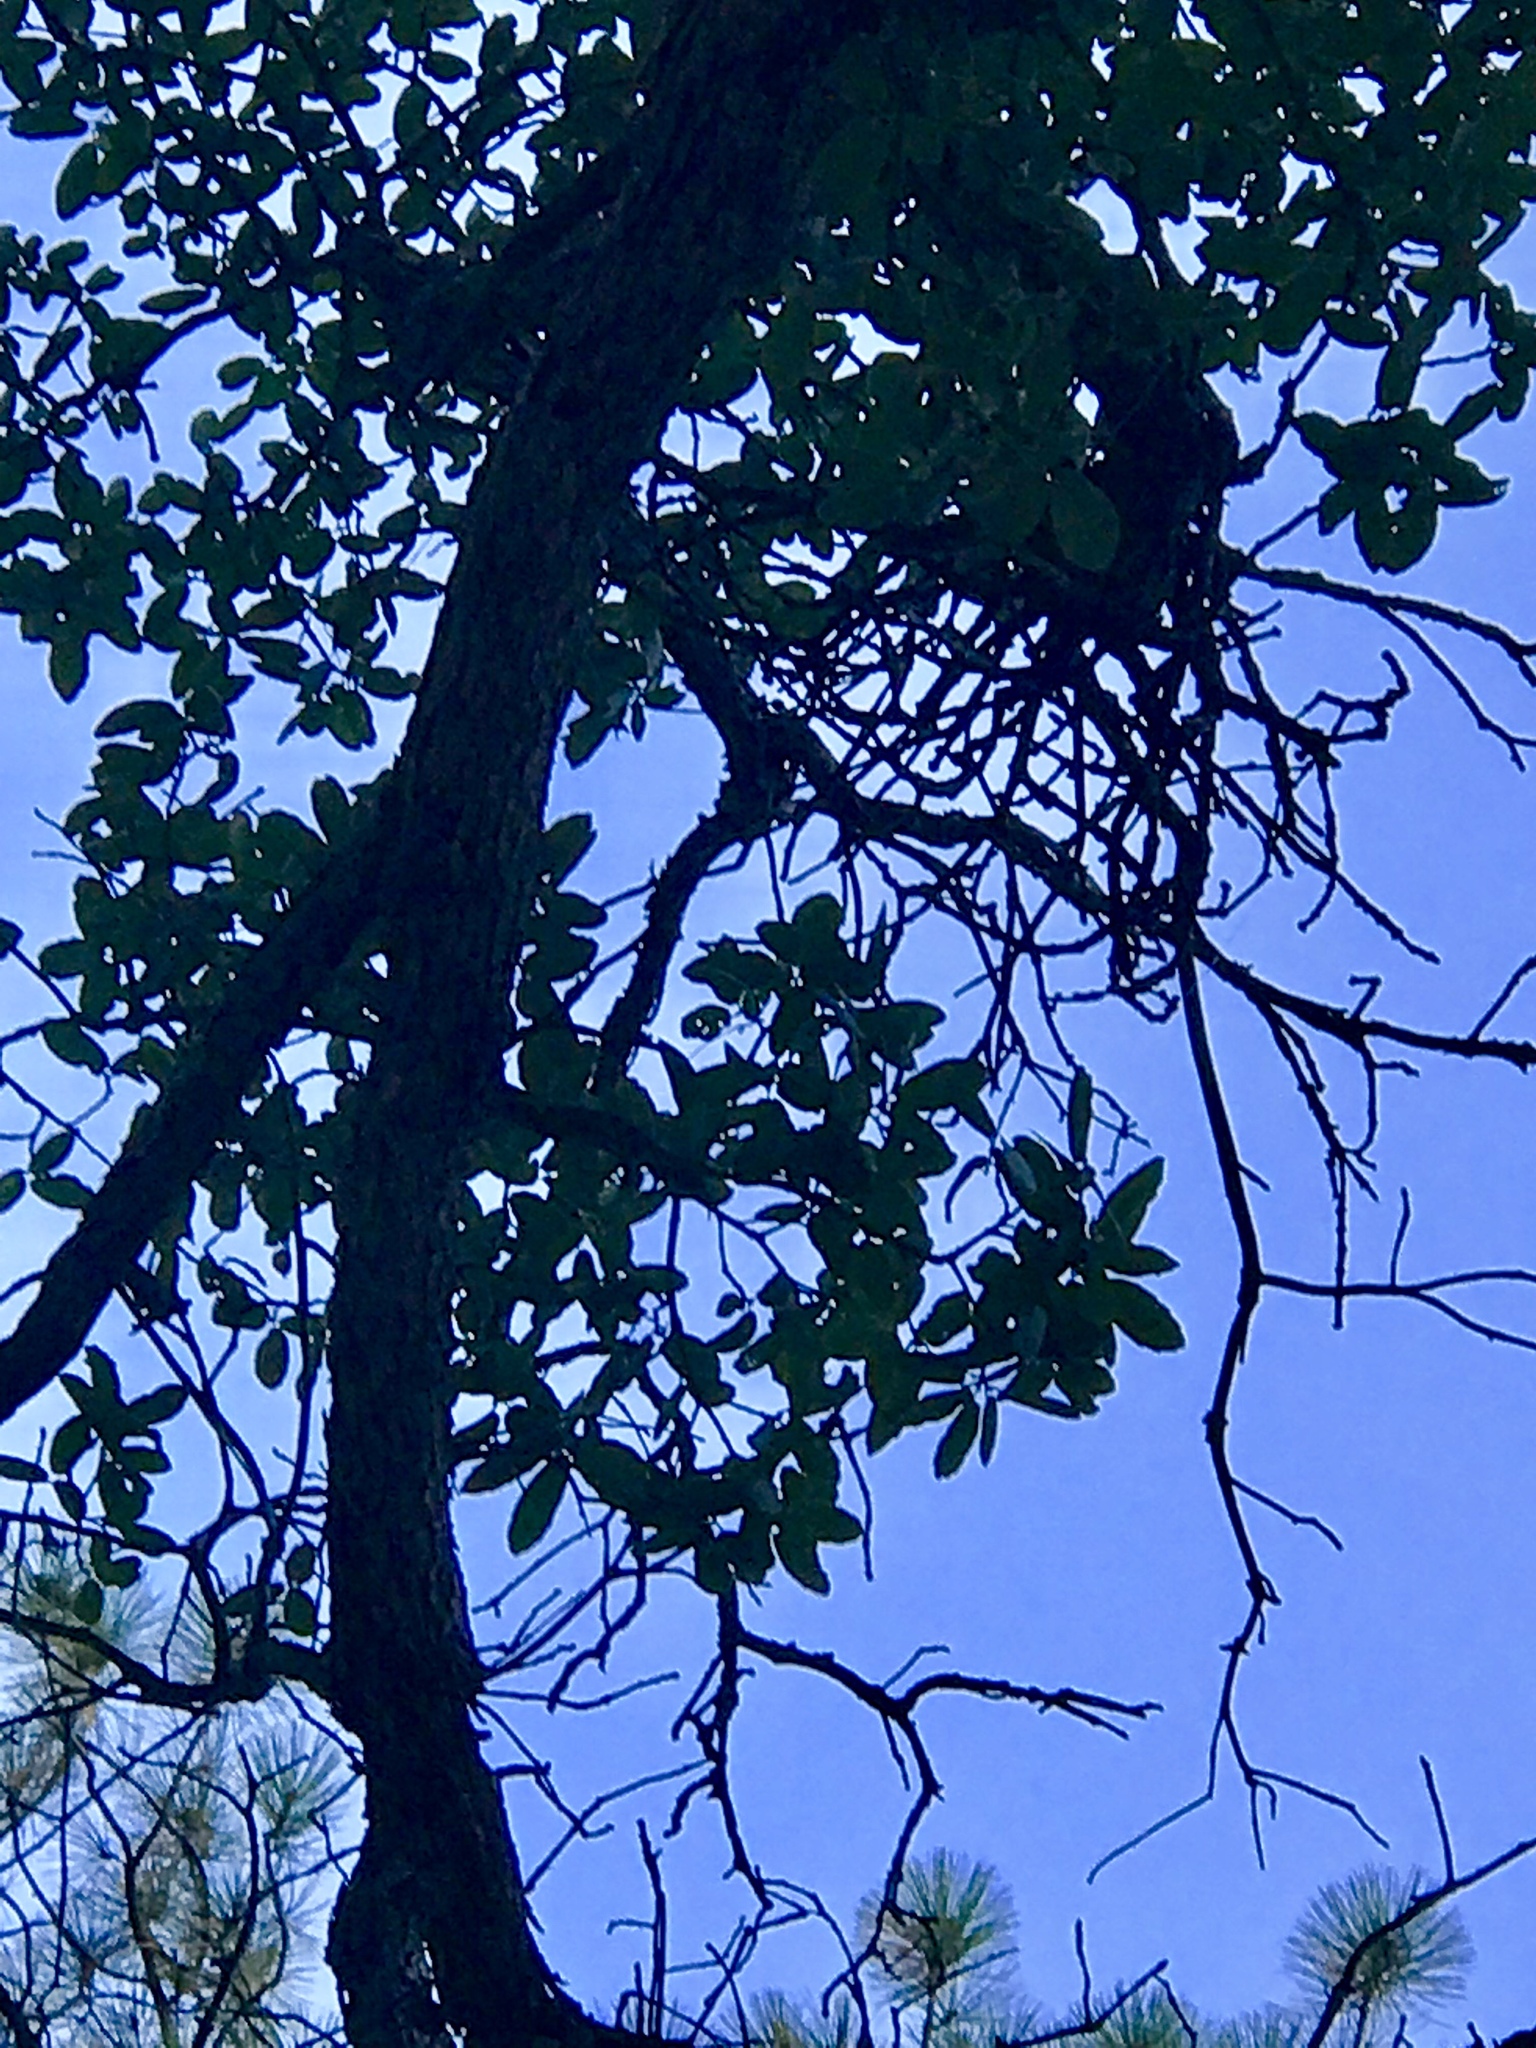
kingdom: Plantae
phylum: Tracheophyta
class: Magnoliopsida
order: Fagales
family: Fagaceae
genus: Quercus
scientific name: Quercus arizonica
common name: Arizona white oak
